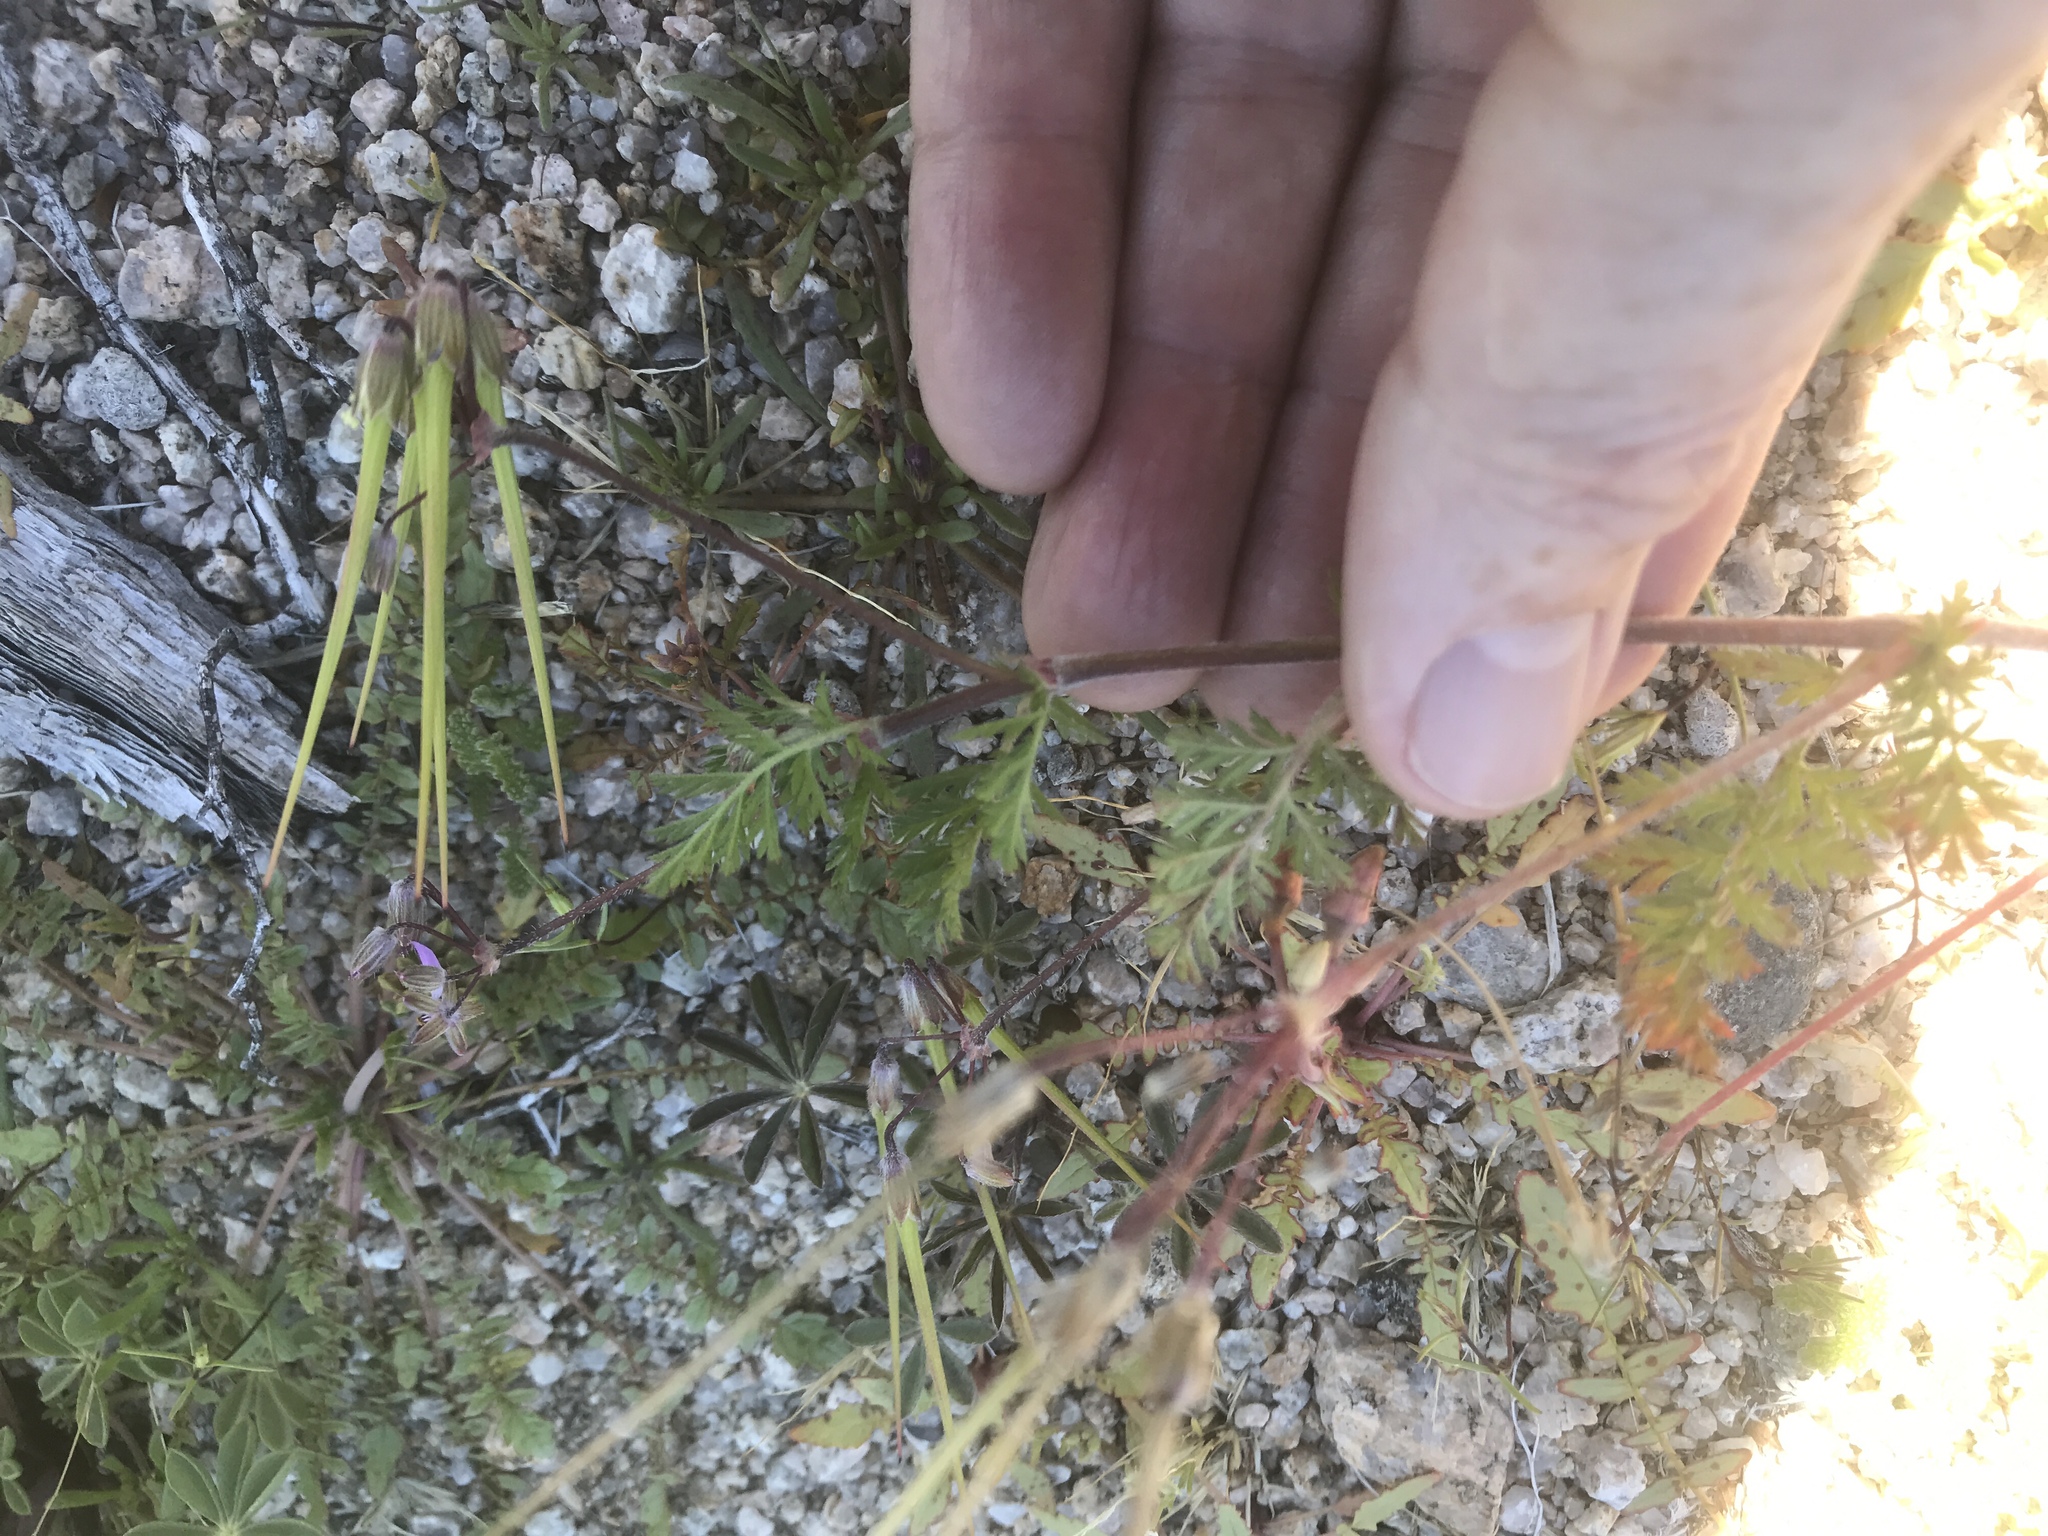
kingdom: Plantae
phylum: Tracheophyta
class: Magnoliopsida
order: Geraniales
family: Geraniaceae
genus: Erodium
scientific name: Erodium cicutarium
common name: Common stork's-bill
